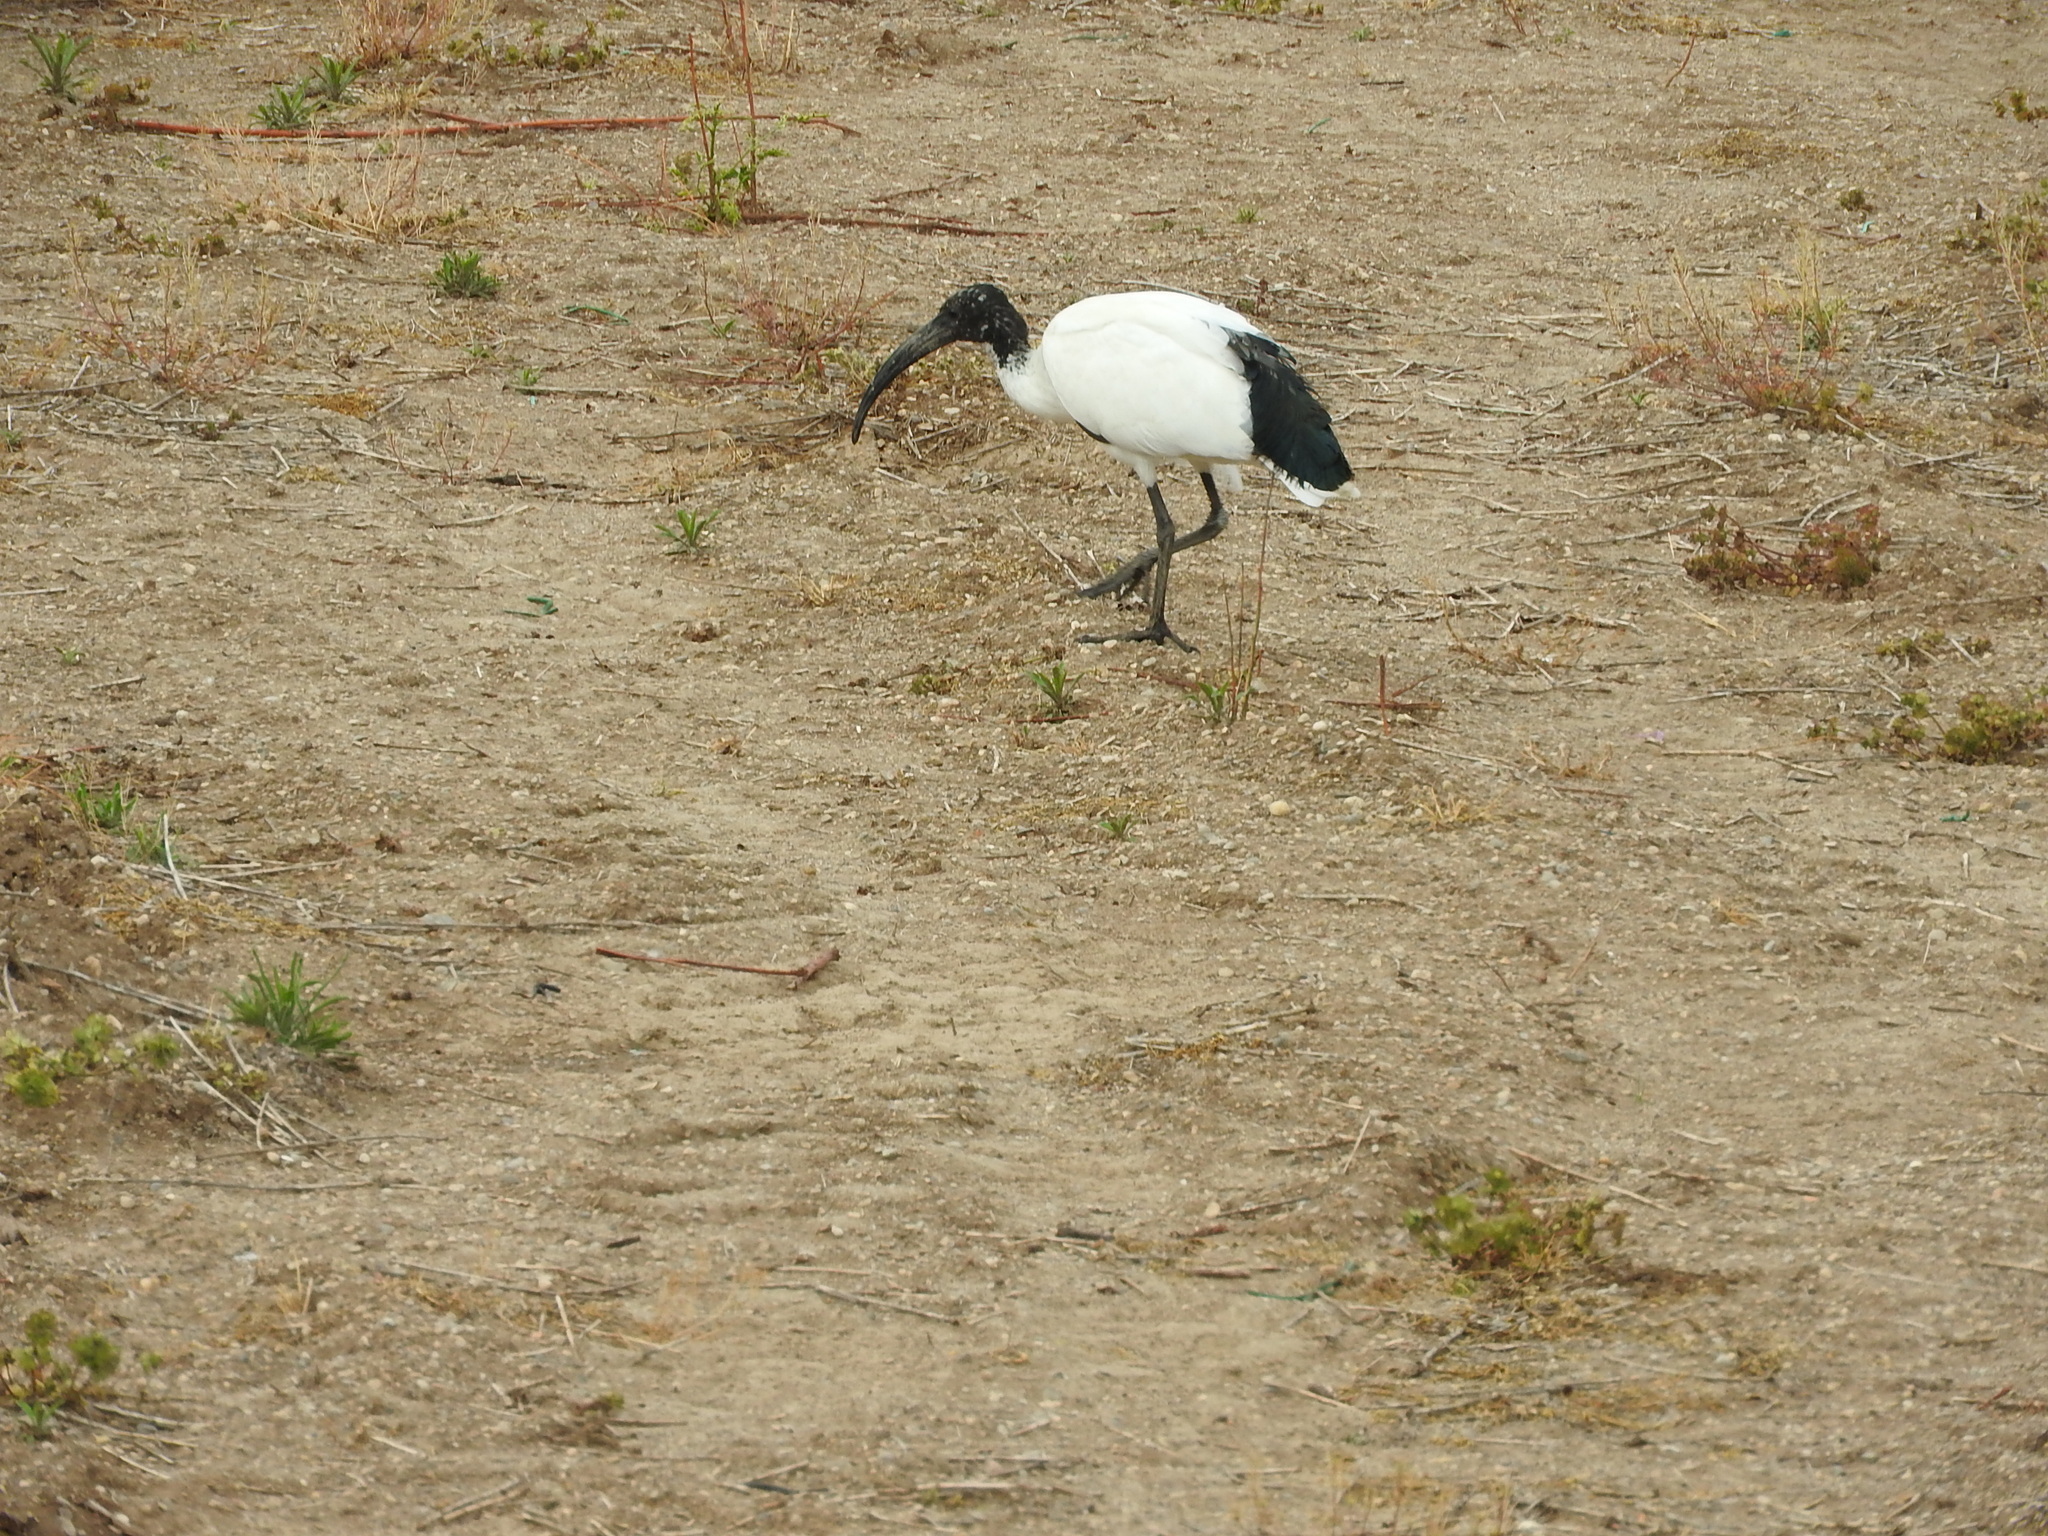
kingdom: Animalia
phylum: Chordata
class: Aves
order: Pelecaniformes
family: Threskiornithidae
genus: Threskiornis
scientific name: Threskiornis aethiopicus
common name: Sacred ibis
